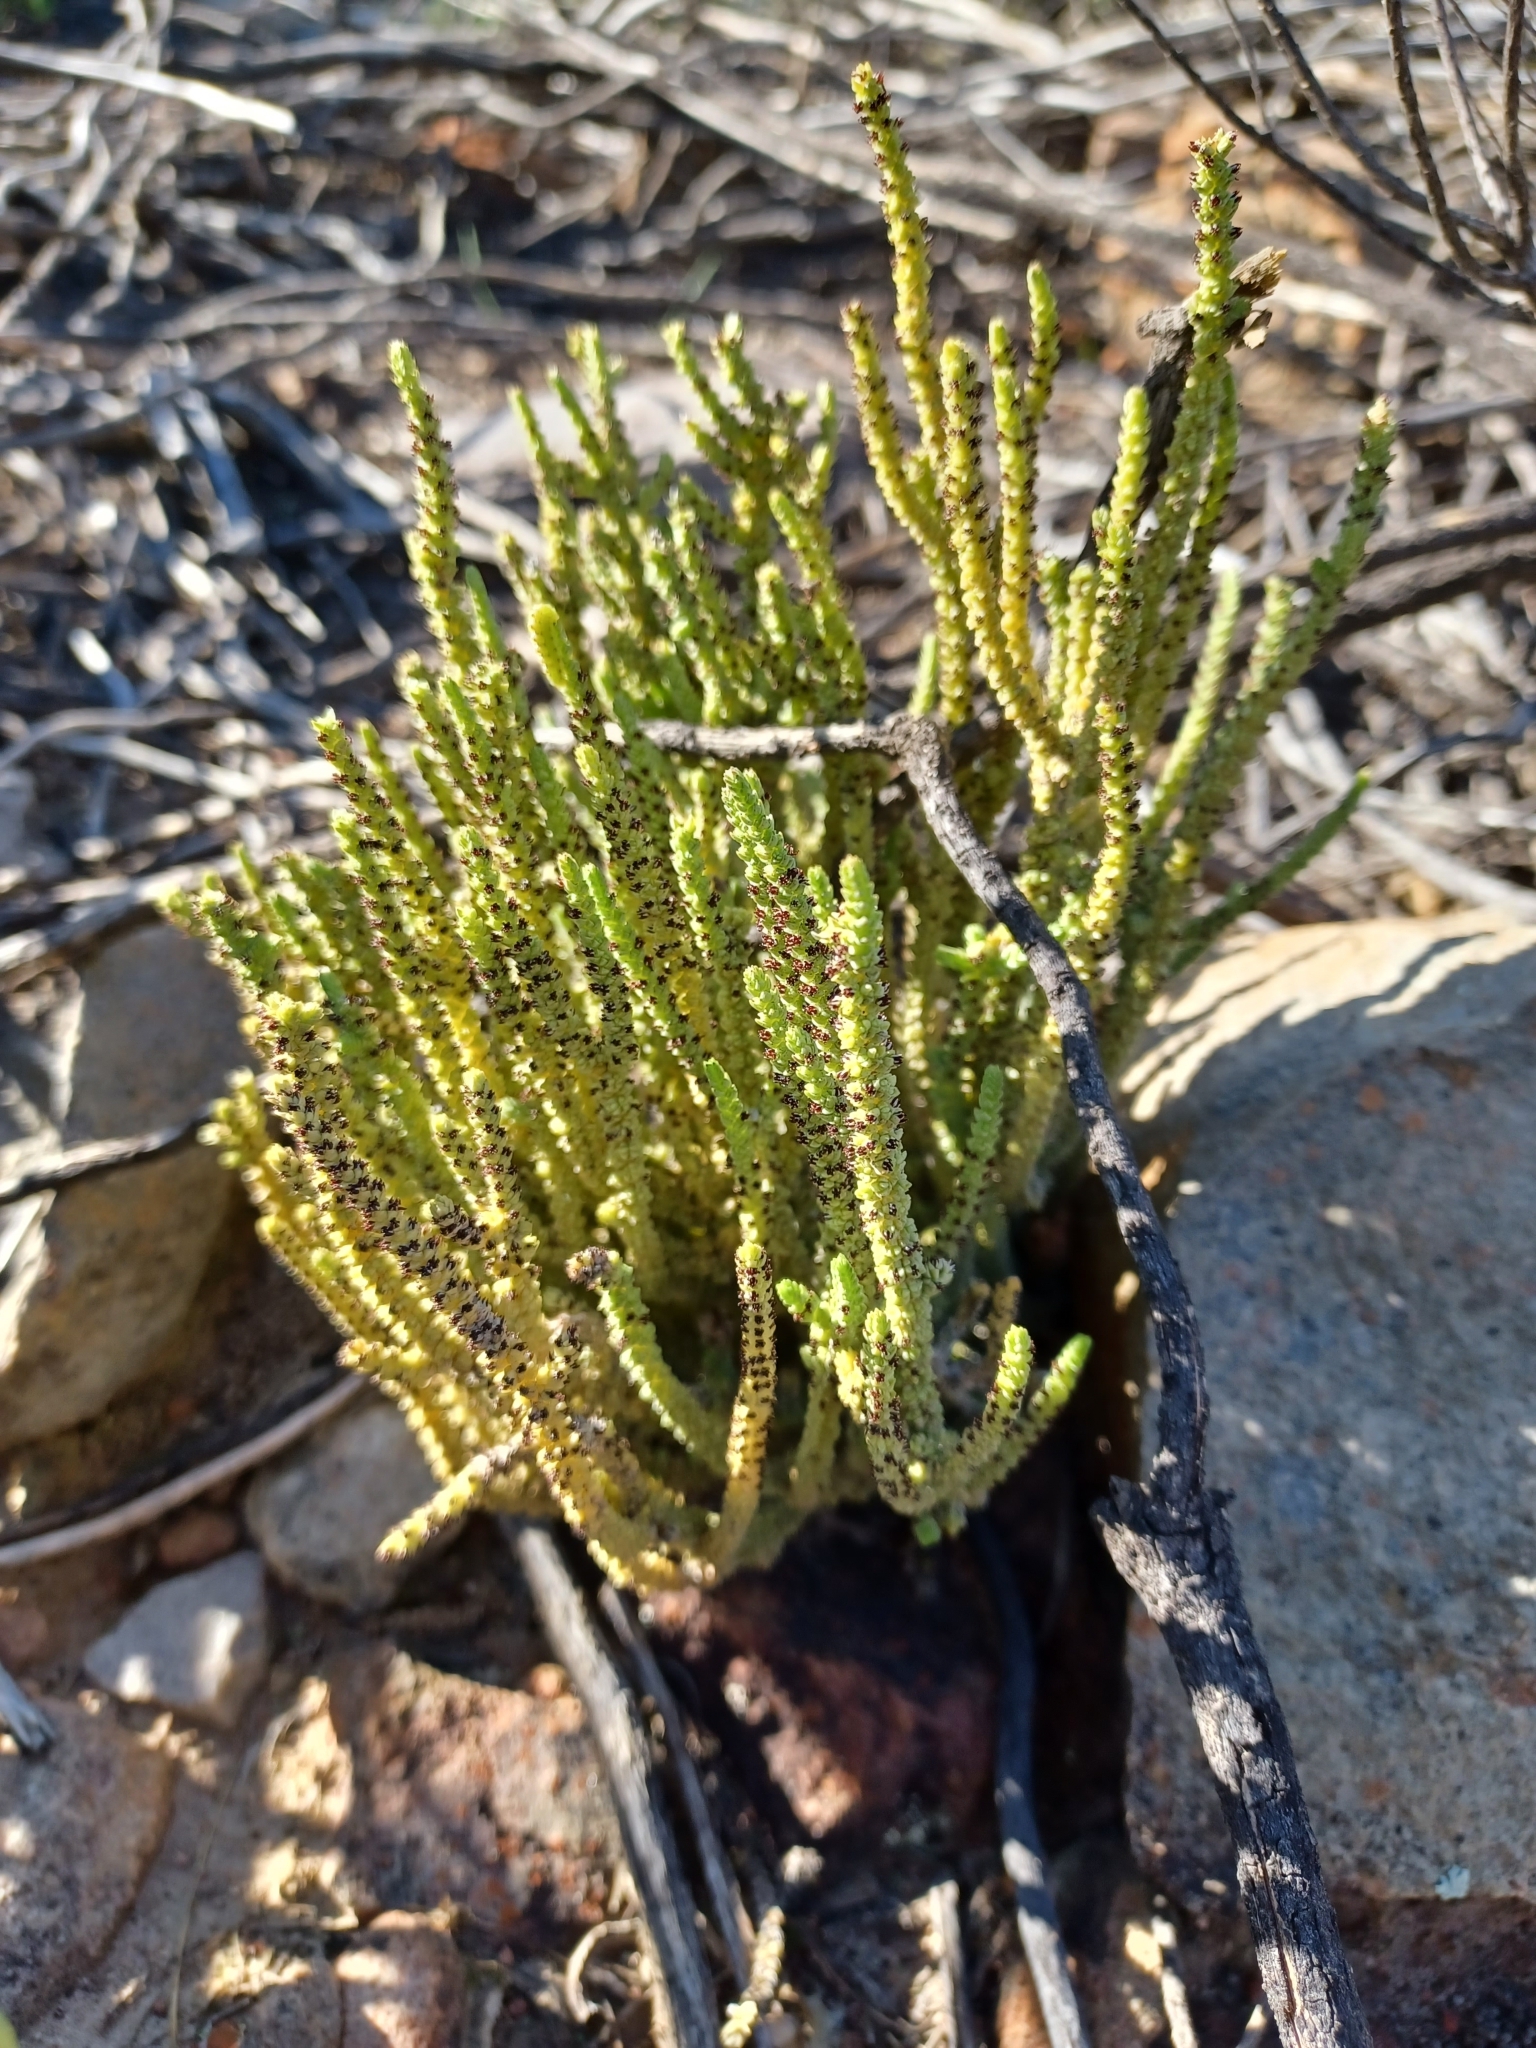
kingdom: Plantae
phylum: Tracheophyta
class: Magnoliopsida
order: Saxifragales
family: Crassulaceae
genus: Crassula
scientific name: Crassula muscosa
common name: Toy-cypress
